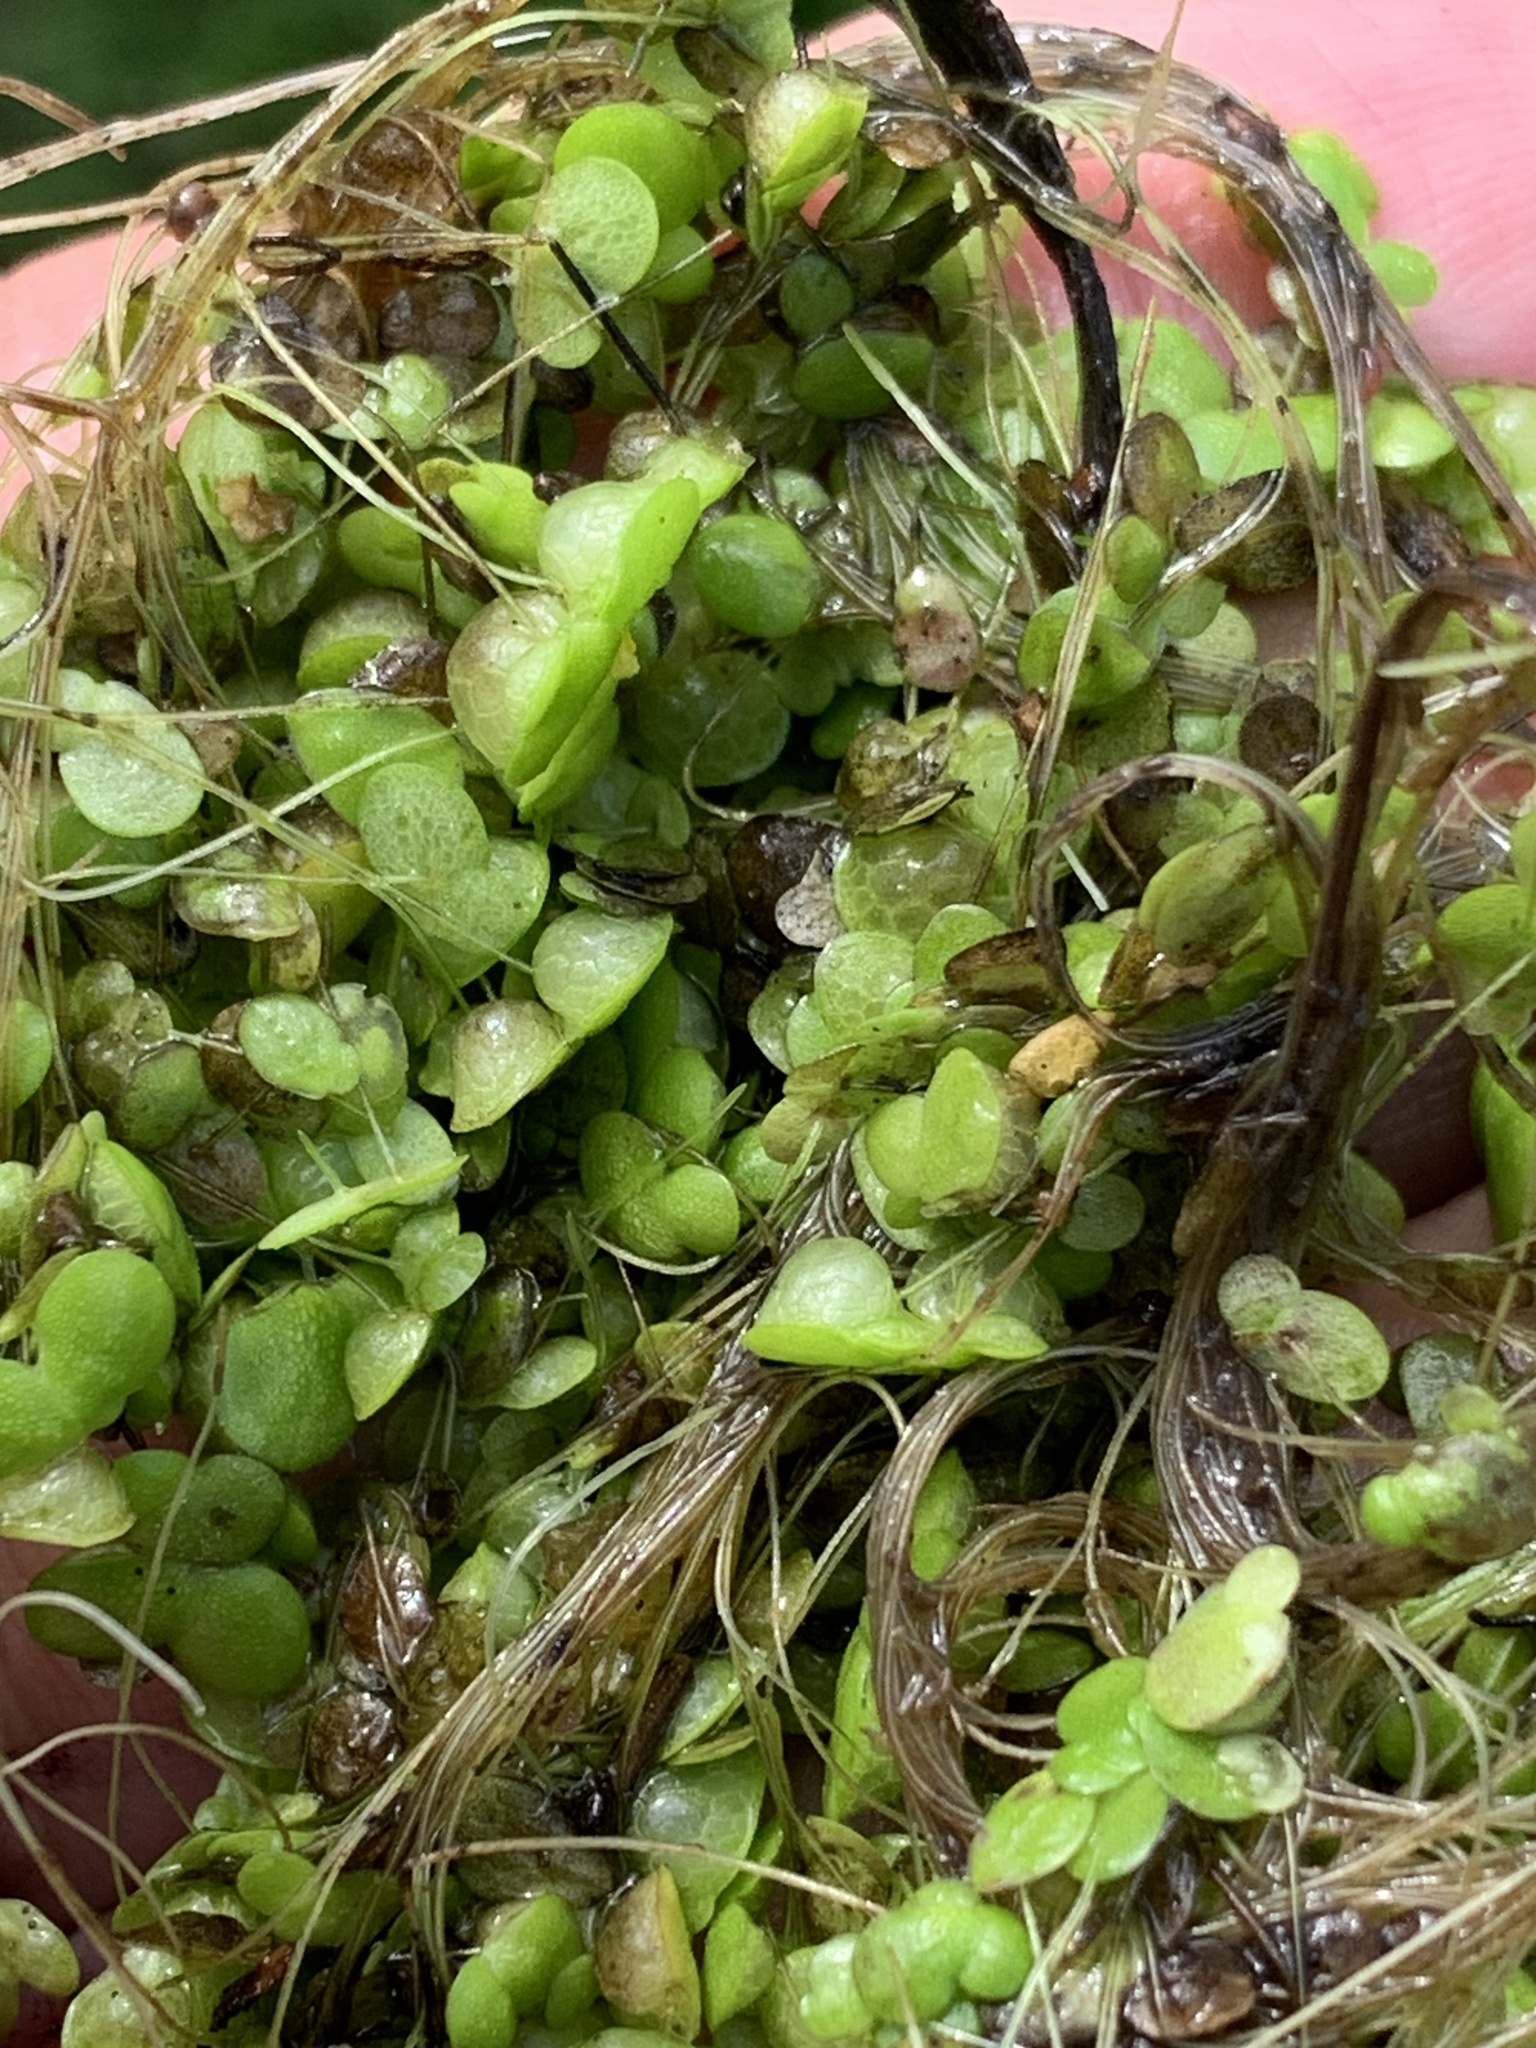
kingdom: Plantae
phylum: Tracheophyta
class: Liliopsida
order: Alismatales
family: Araceae
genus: Lemna
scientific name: Lemna gibba
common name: Fat duckweed
